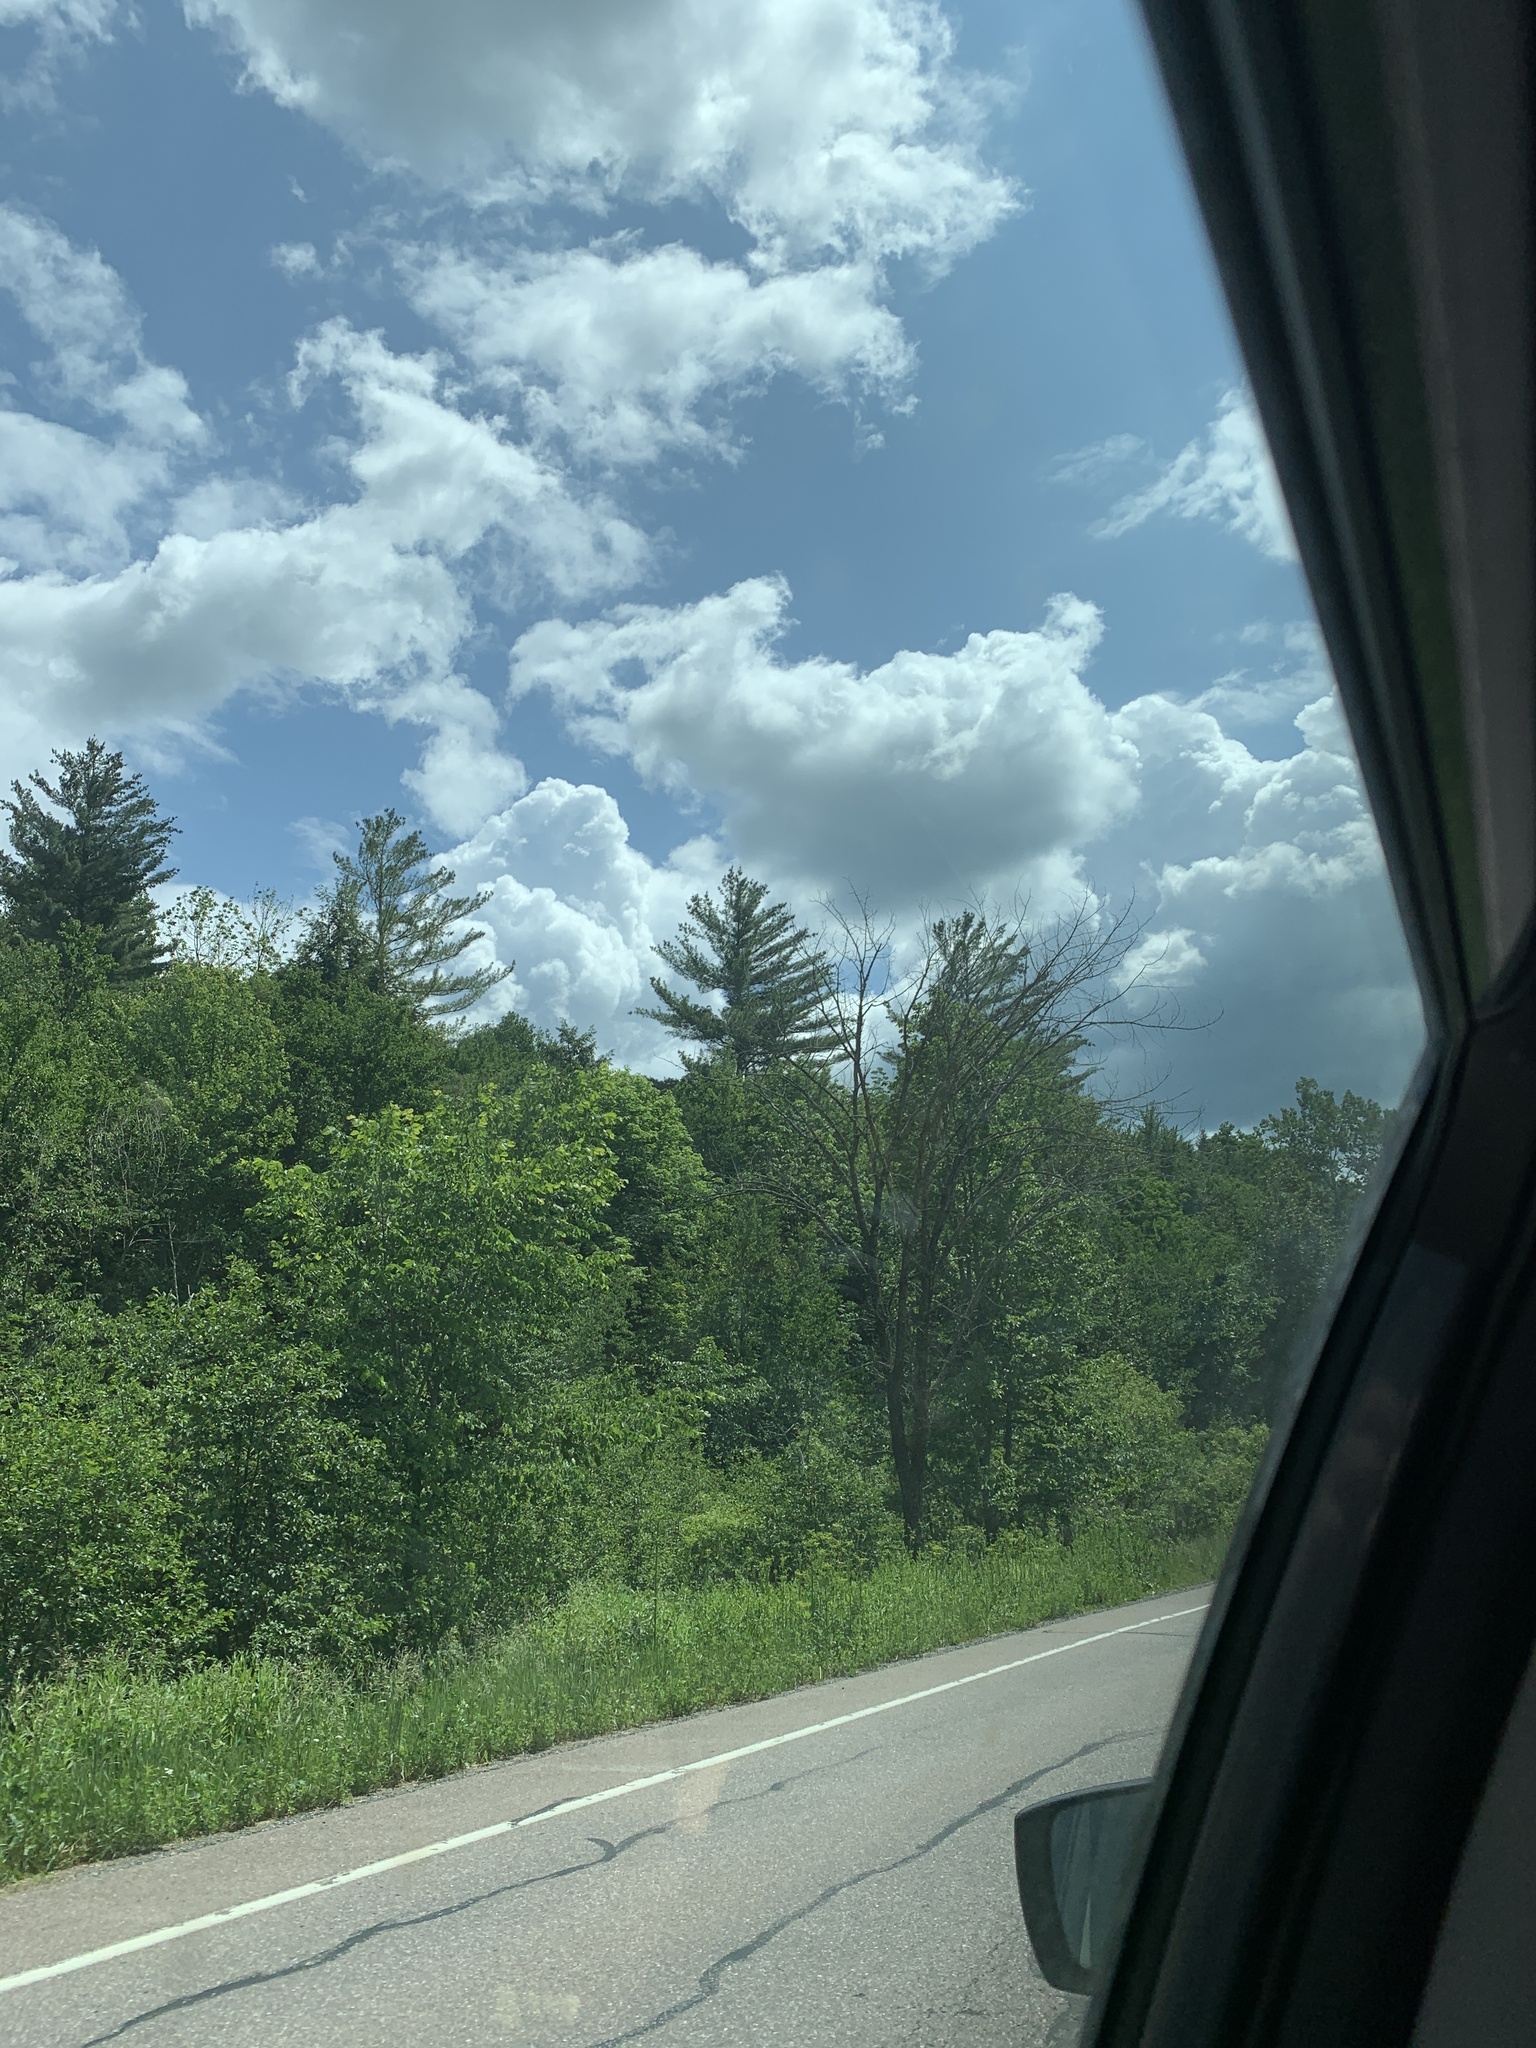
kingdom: Plantae
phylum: Tracheophyta
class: Pinopsida
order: Pinales
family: Pinaceae
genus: Pinus
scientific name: Pinus strobus
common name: Weymouth pine
